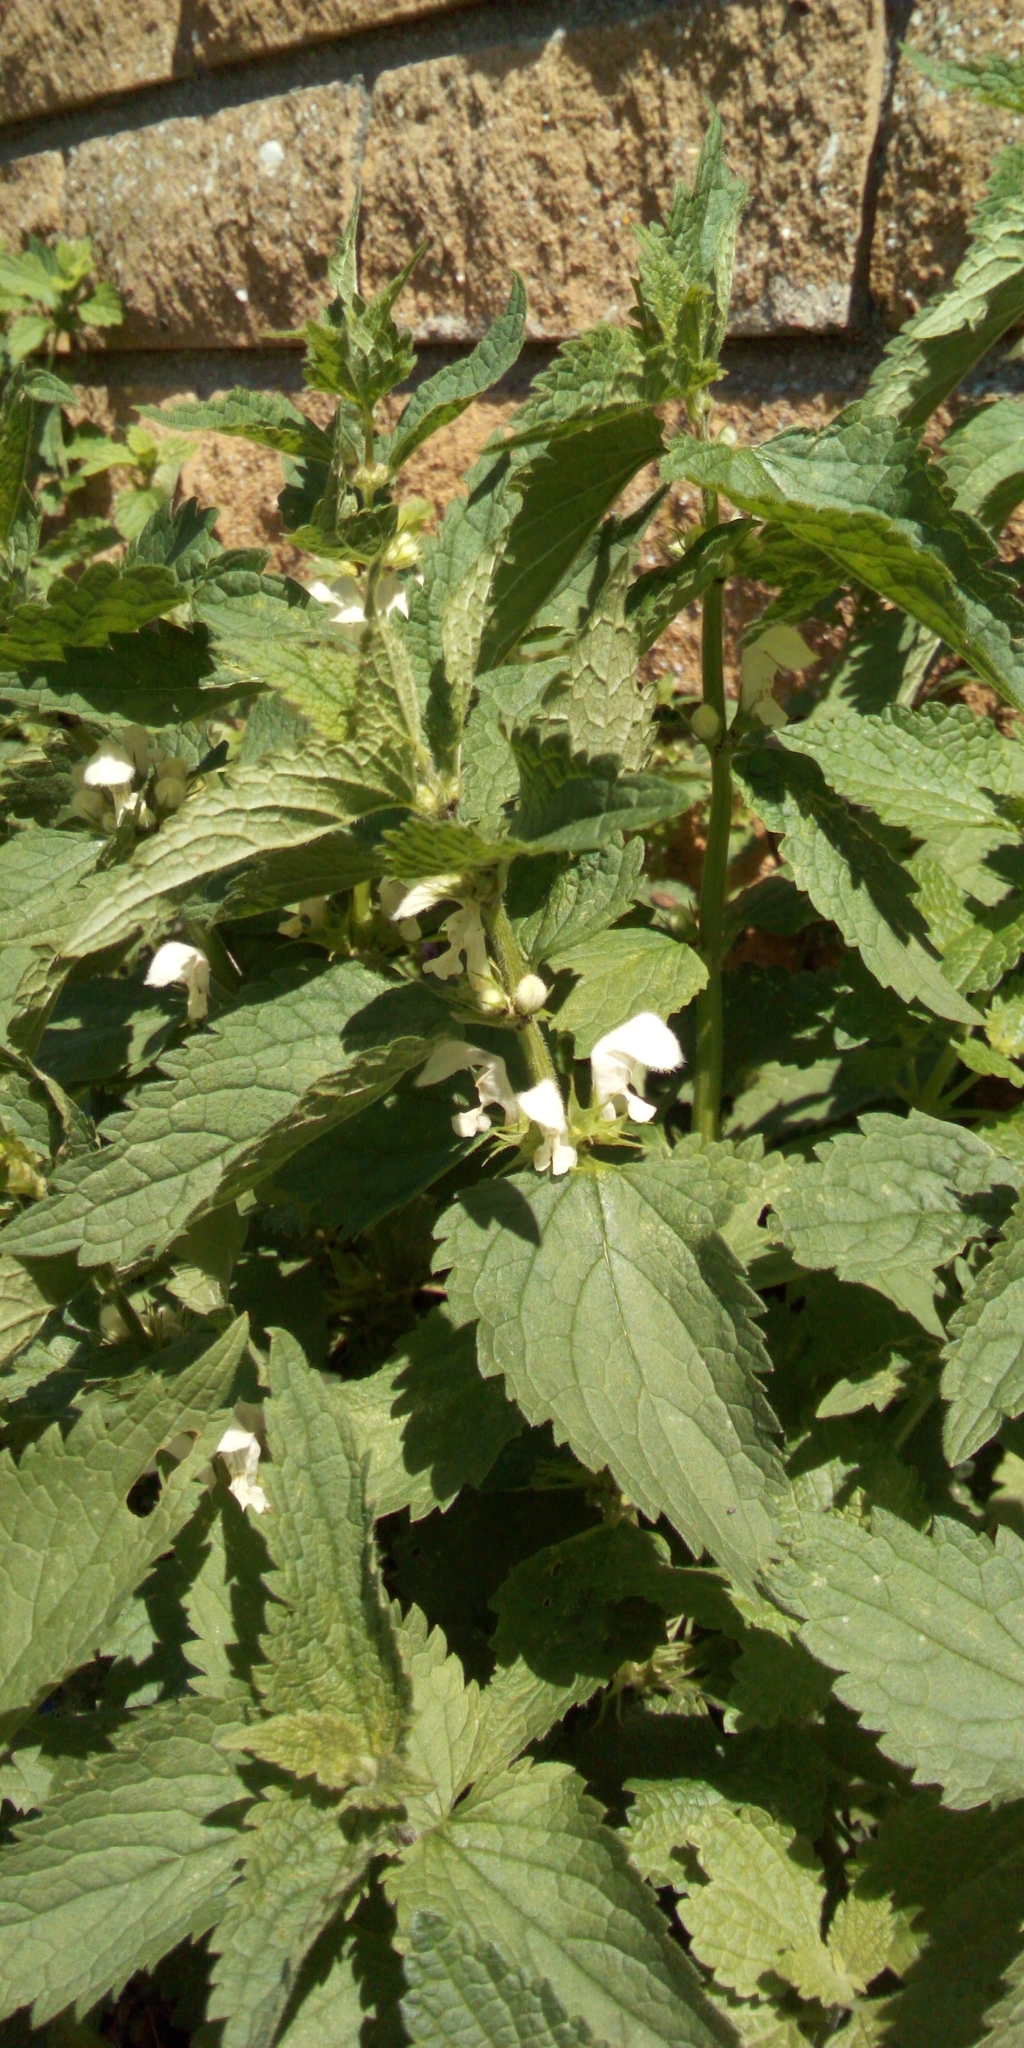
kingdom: Plantae
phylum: Tracheophyta
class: Magnoliopsida
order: Lamiales
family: Lamiaceae
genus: Lamium
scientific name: Lamium album
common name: White dead-nettle
